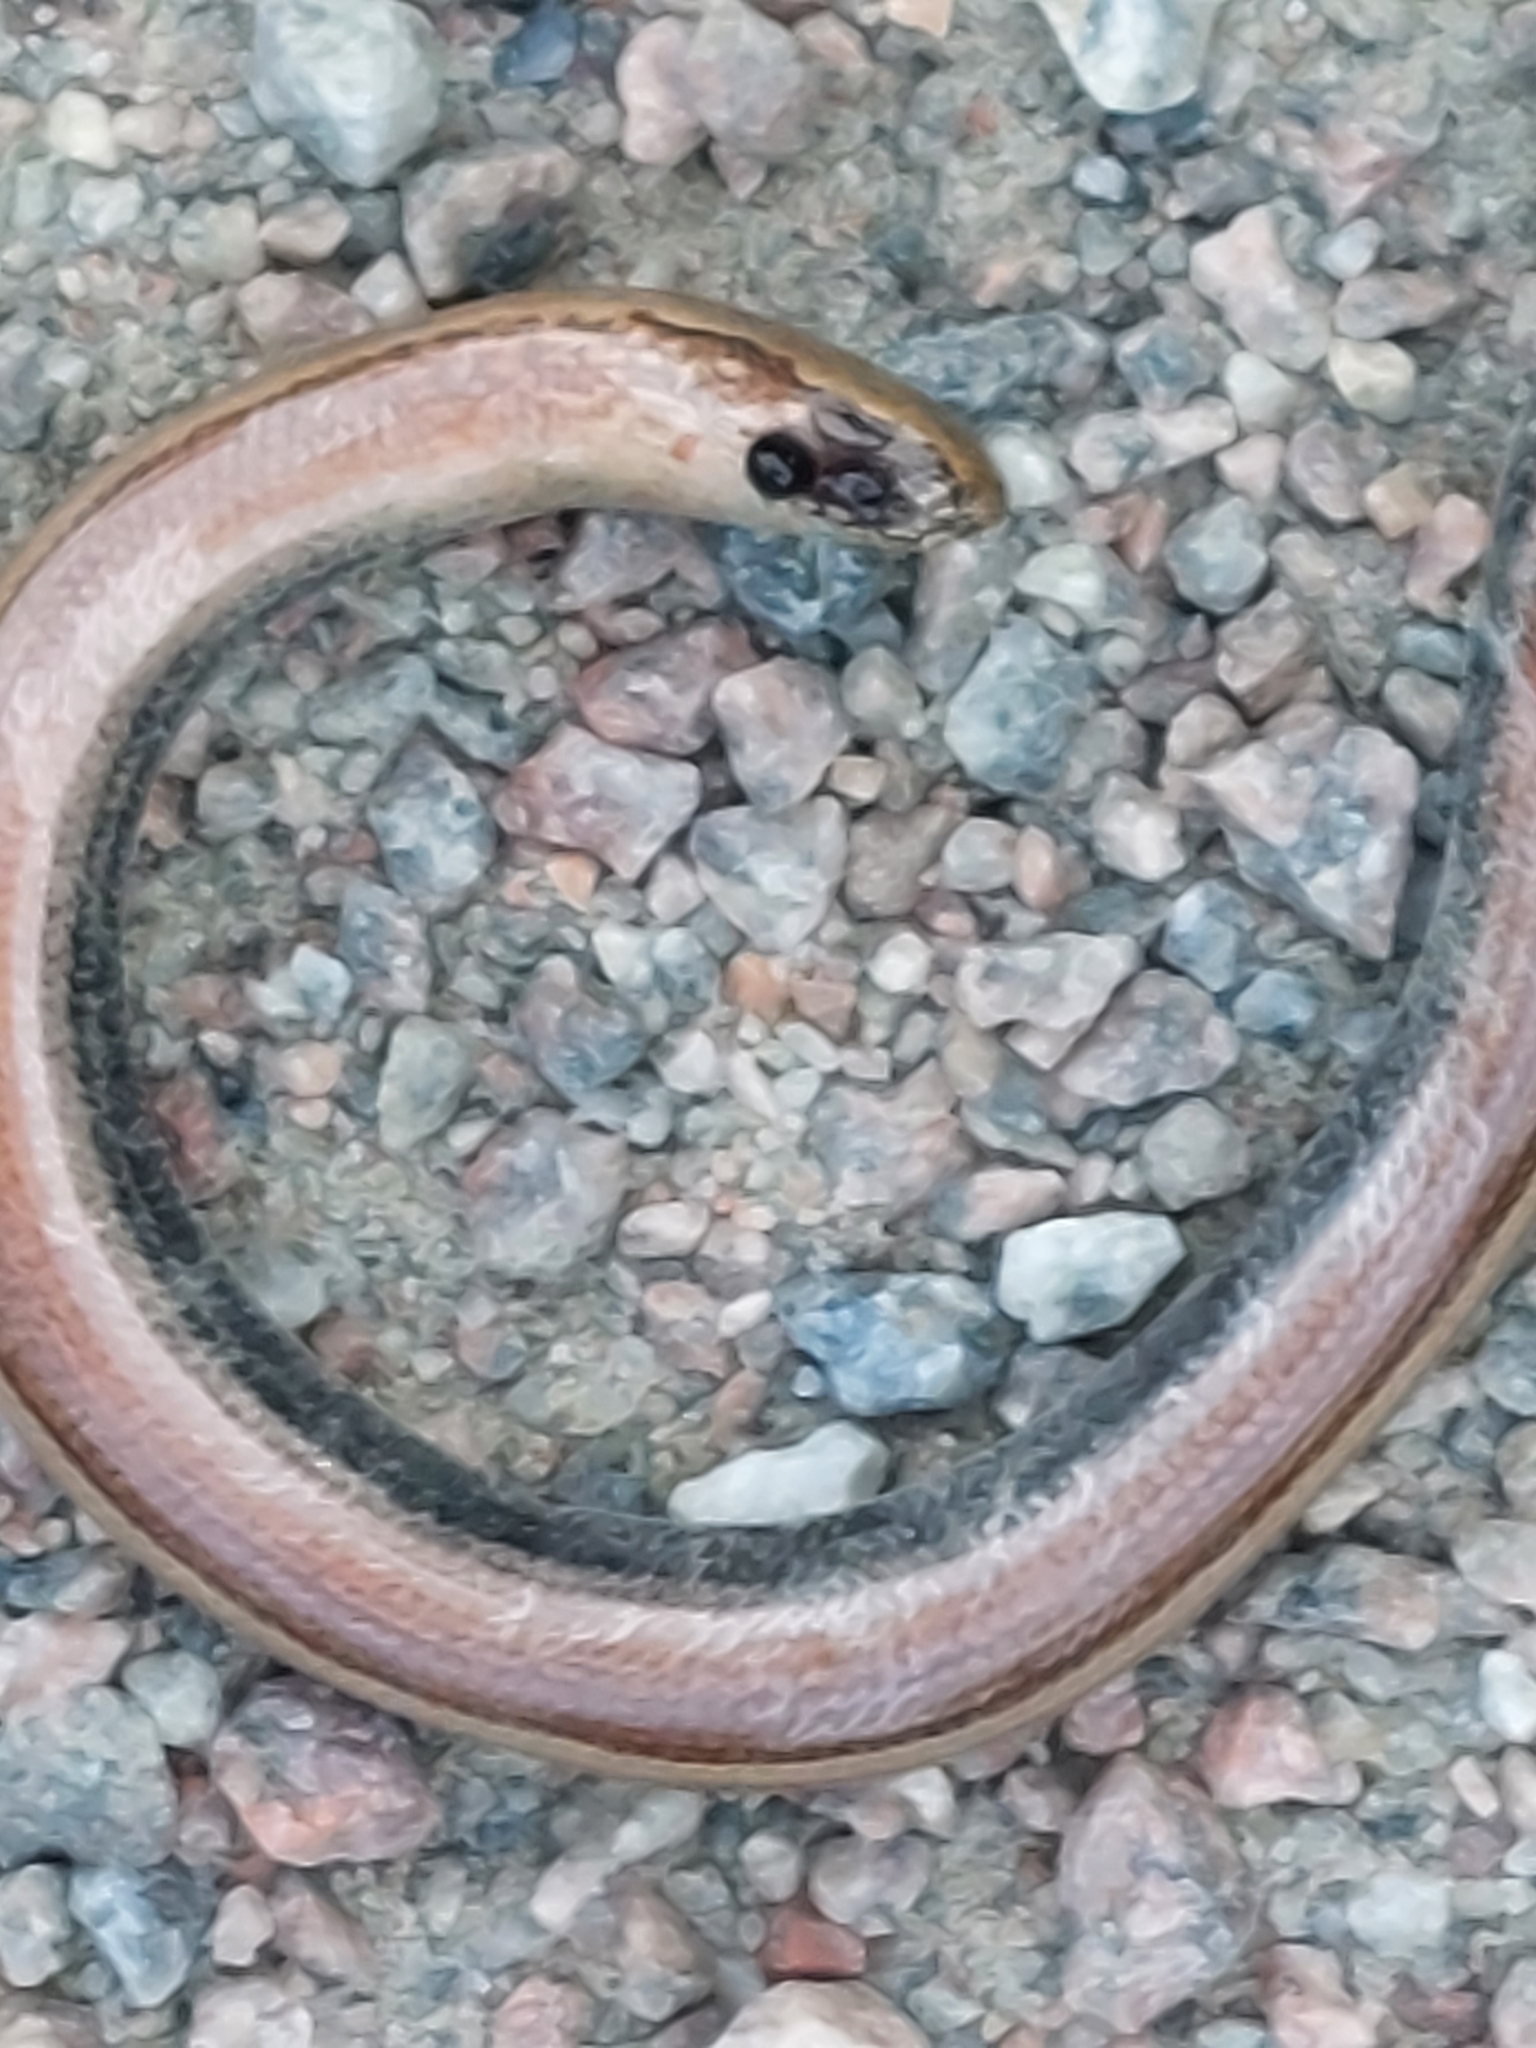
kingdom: Animalia
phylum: Chordata
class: Squamata
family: Anguidae
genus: Anguis
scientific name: Anguis fragilis
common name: Slow worm
